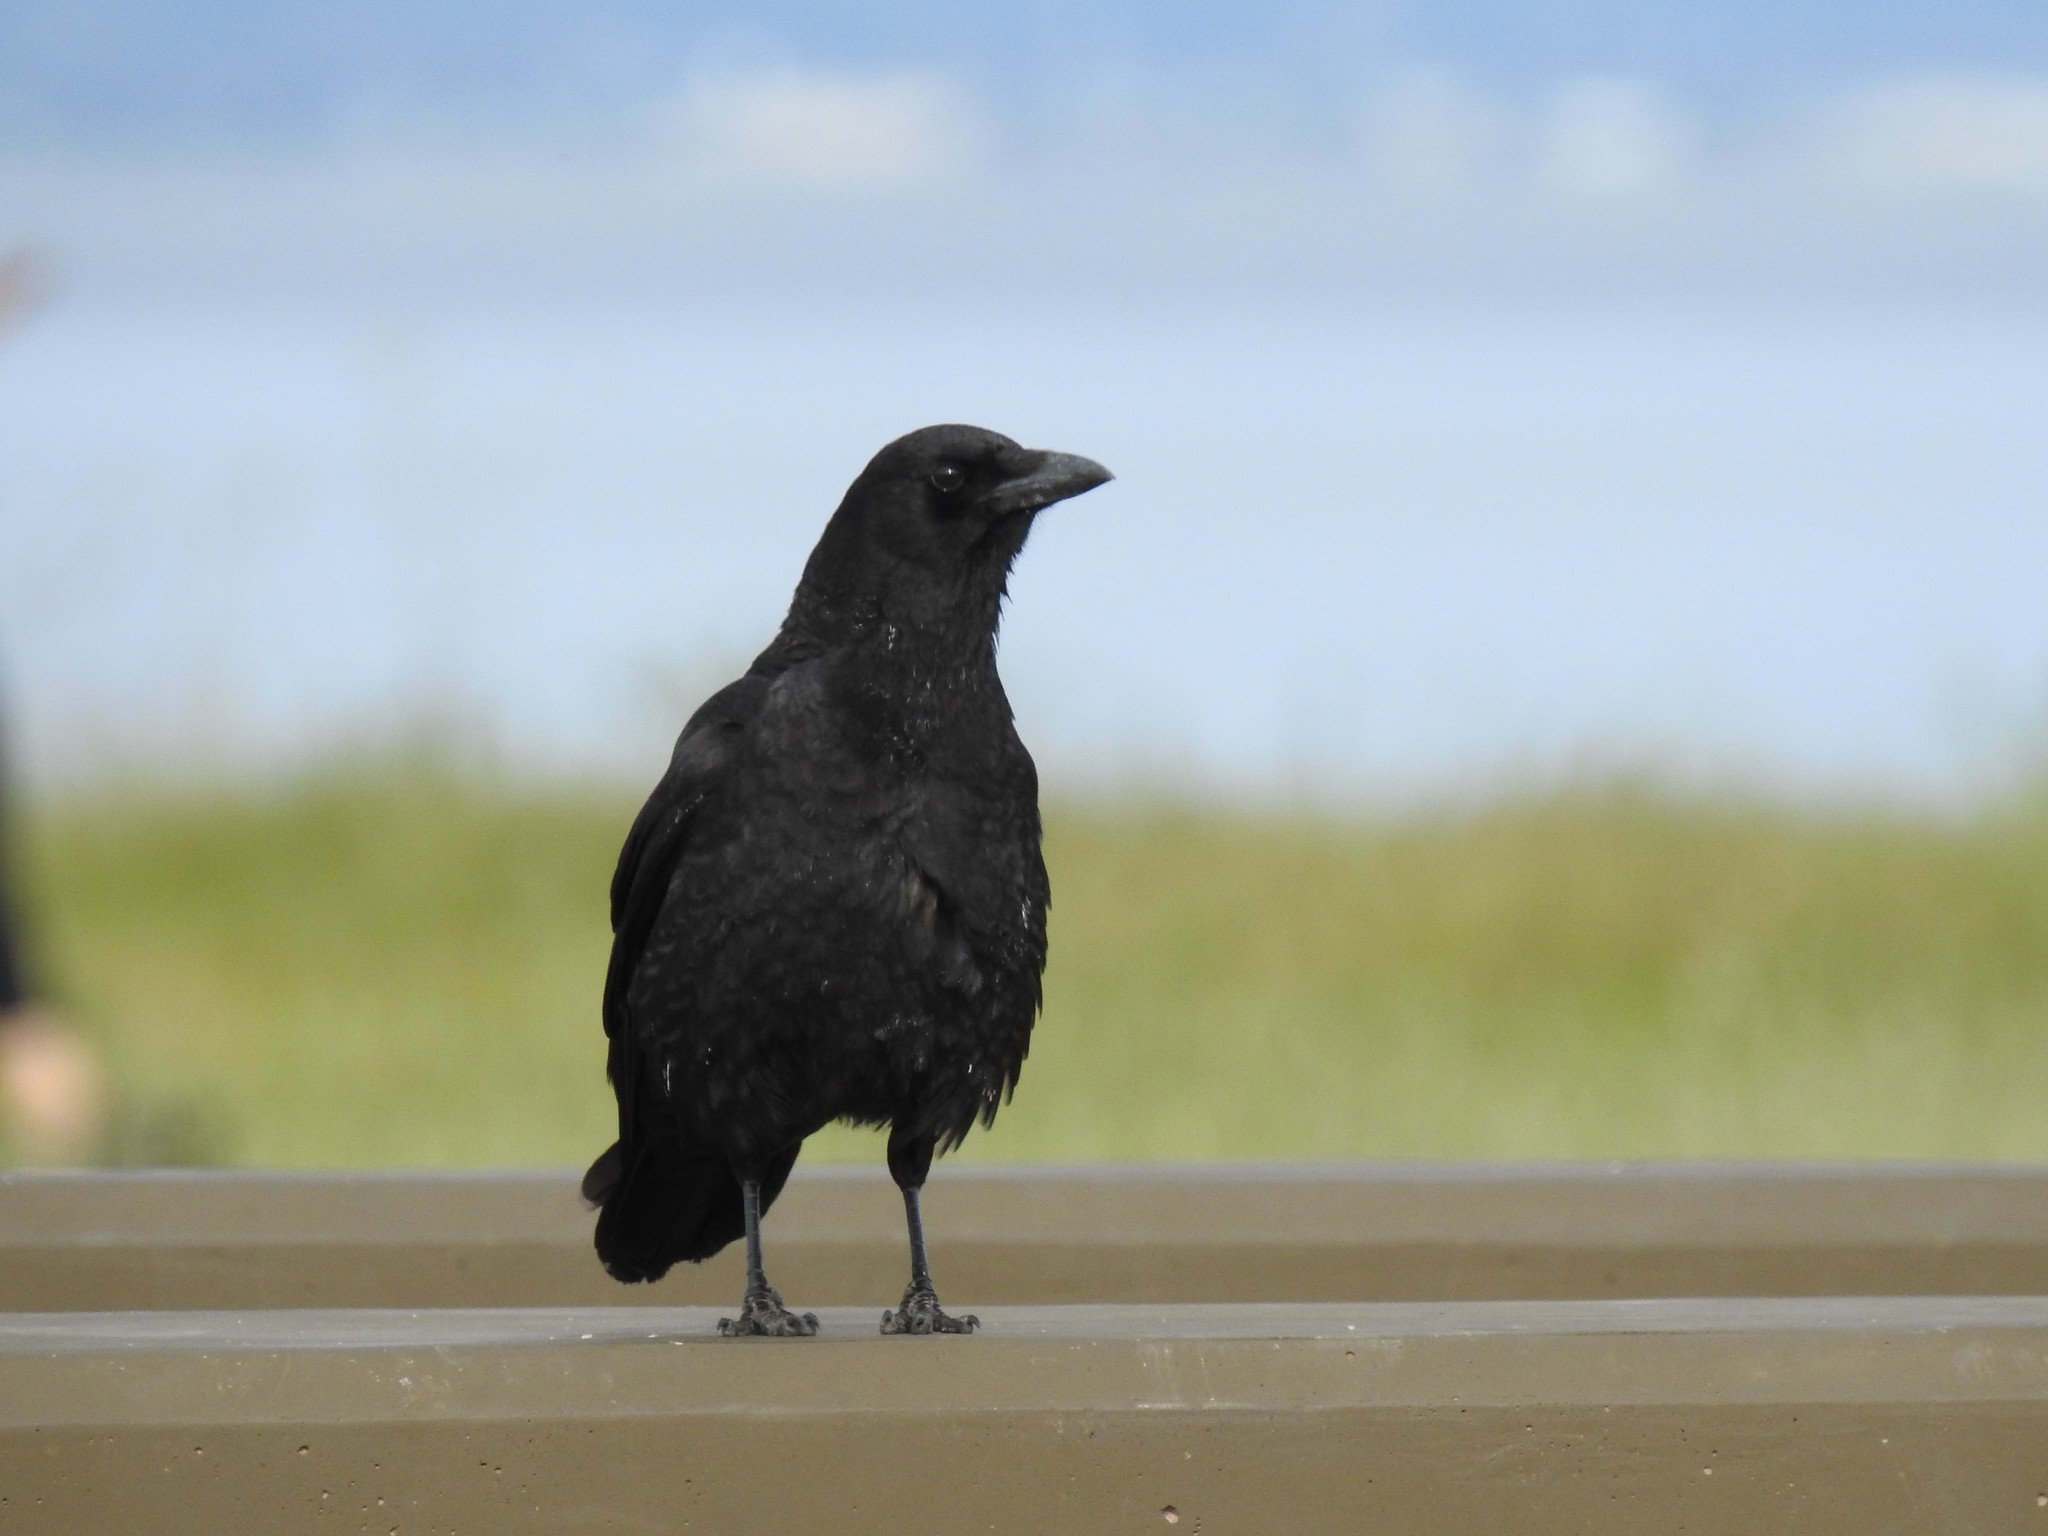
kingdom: Animalia
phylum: Chordata
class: Aves
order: Passeriformes
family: Corvidae
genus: Corvus
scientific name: Corvus brachyrhynchos
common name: American crow
